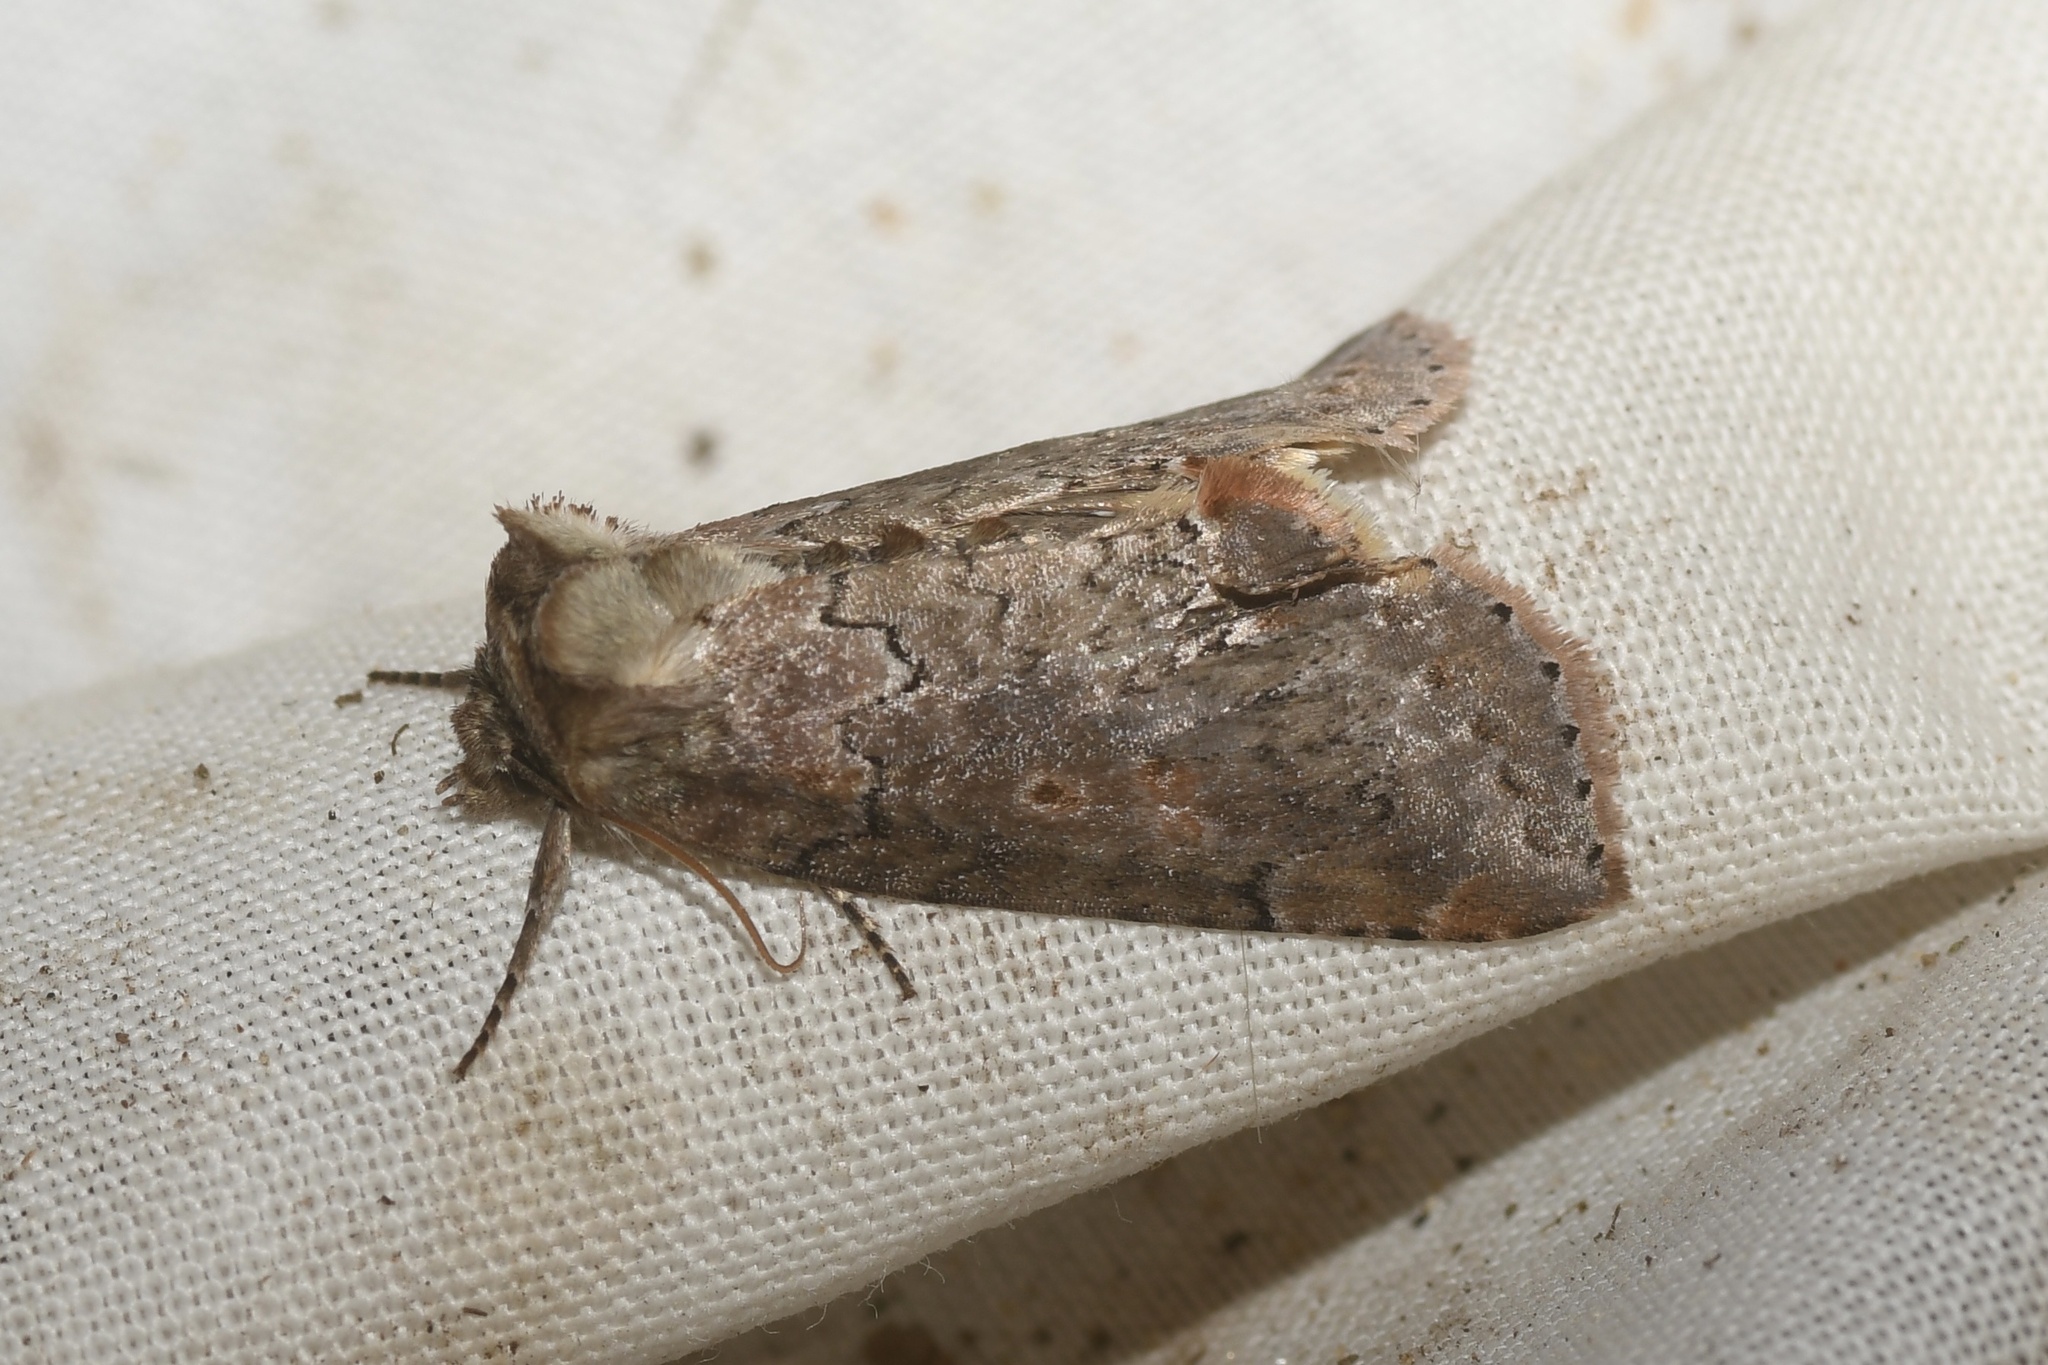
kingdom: Animalia
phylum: Arthropoda
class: Insecta
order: Lepidoptera
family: Drepanidae
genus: Pseudothyatira
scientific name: Pseudothyatira cymatophoroides
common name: Tufted thyatirid moth
